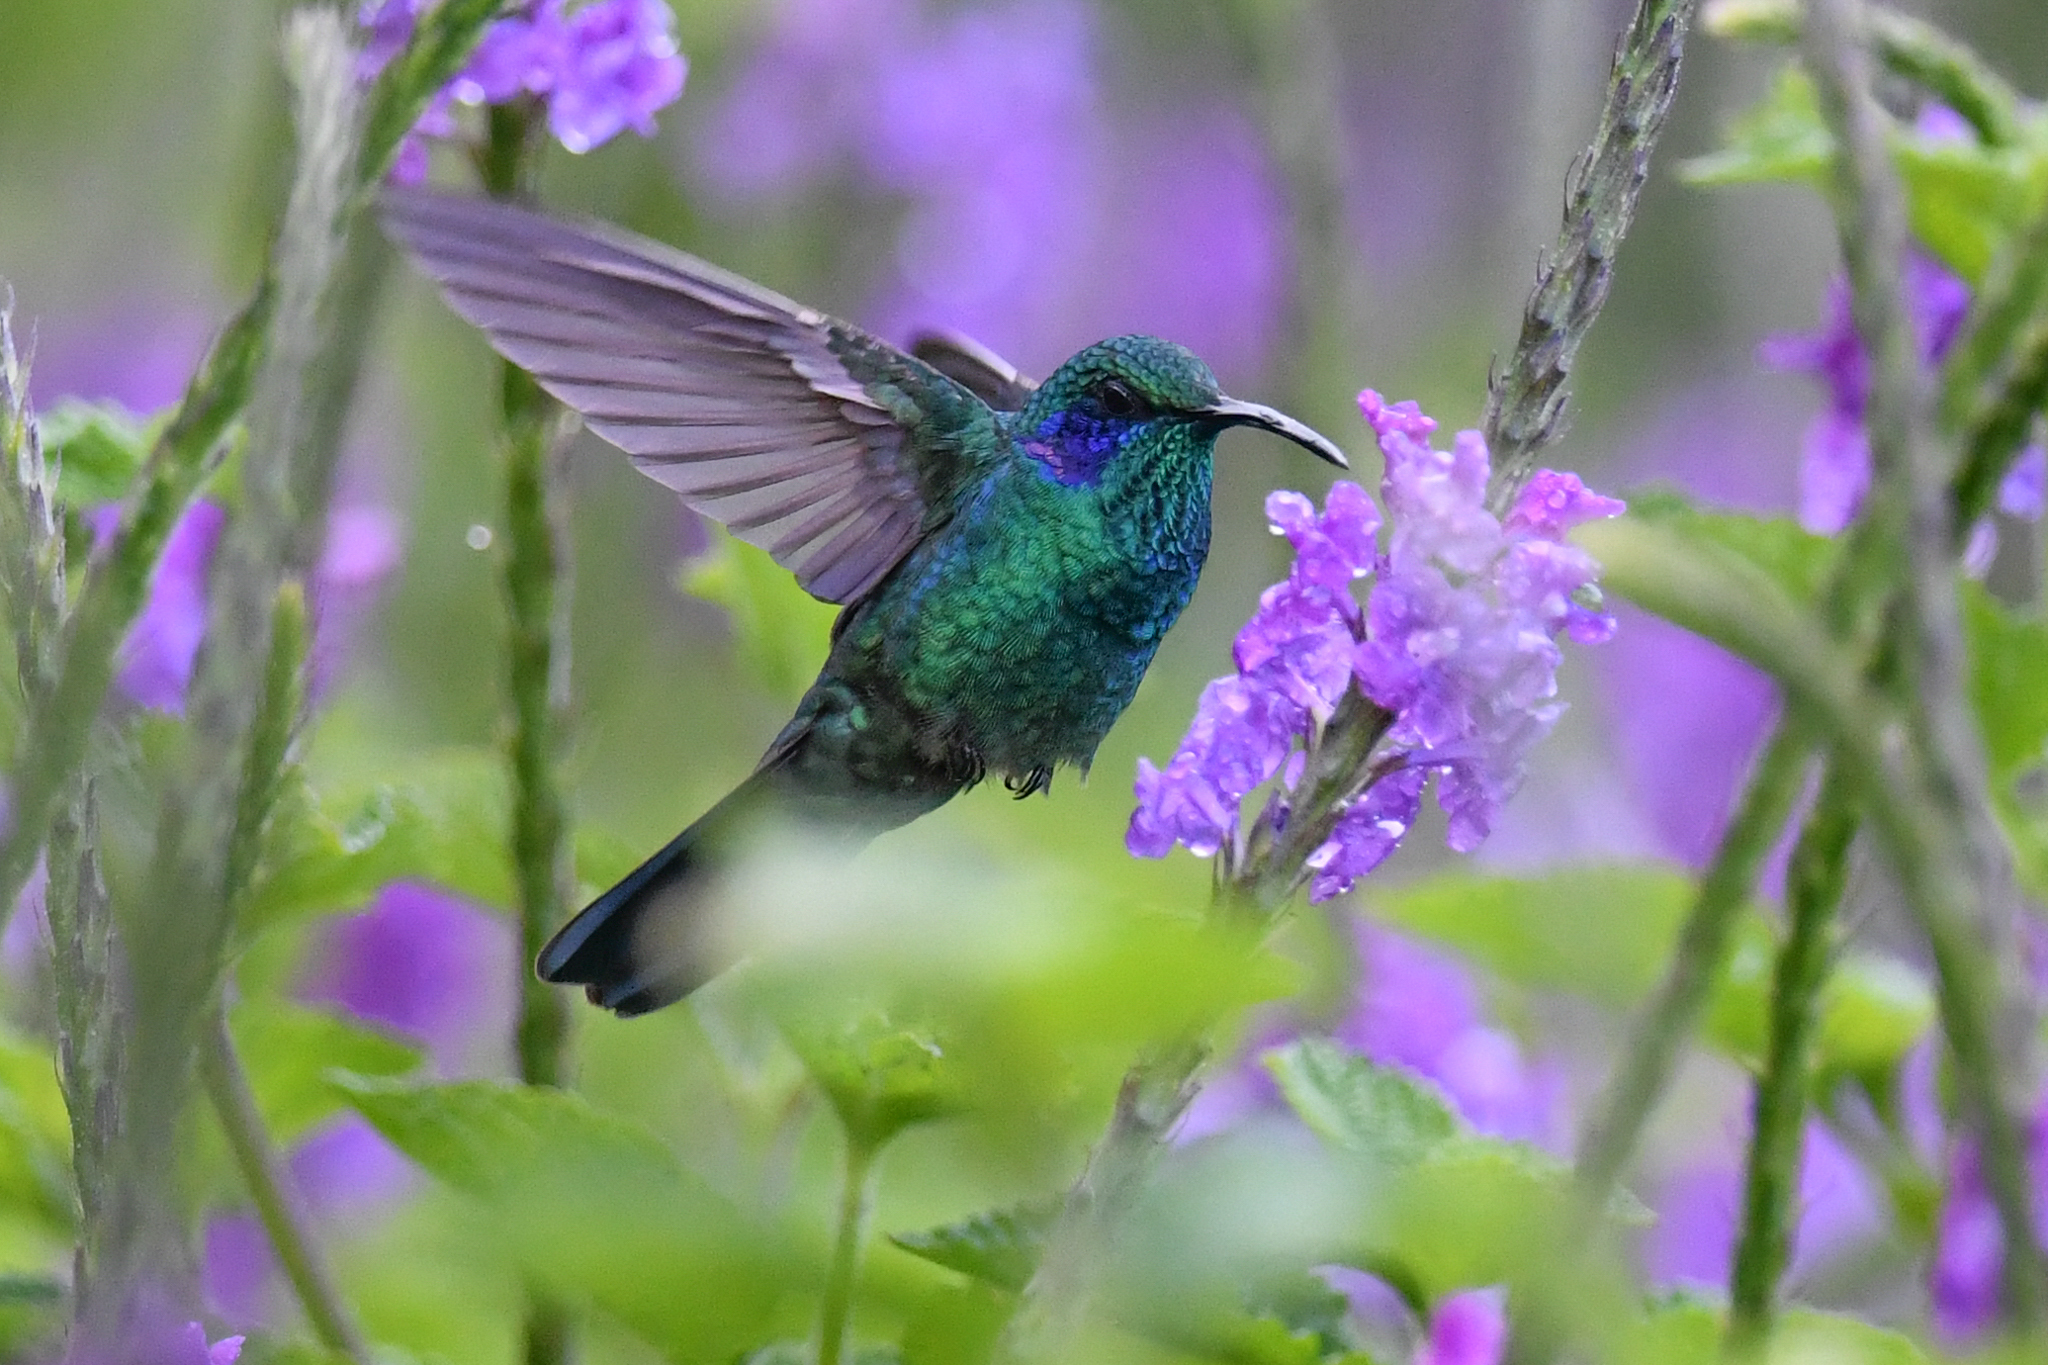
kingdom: Animalia
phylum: Chordata
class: Aves
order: Apodiformes
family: Trochilidae
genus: Colibri
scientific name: Colibri cyanotus
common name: Lesser violetear
